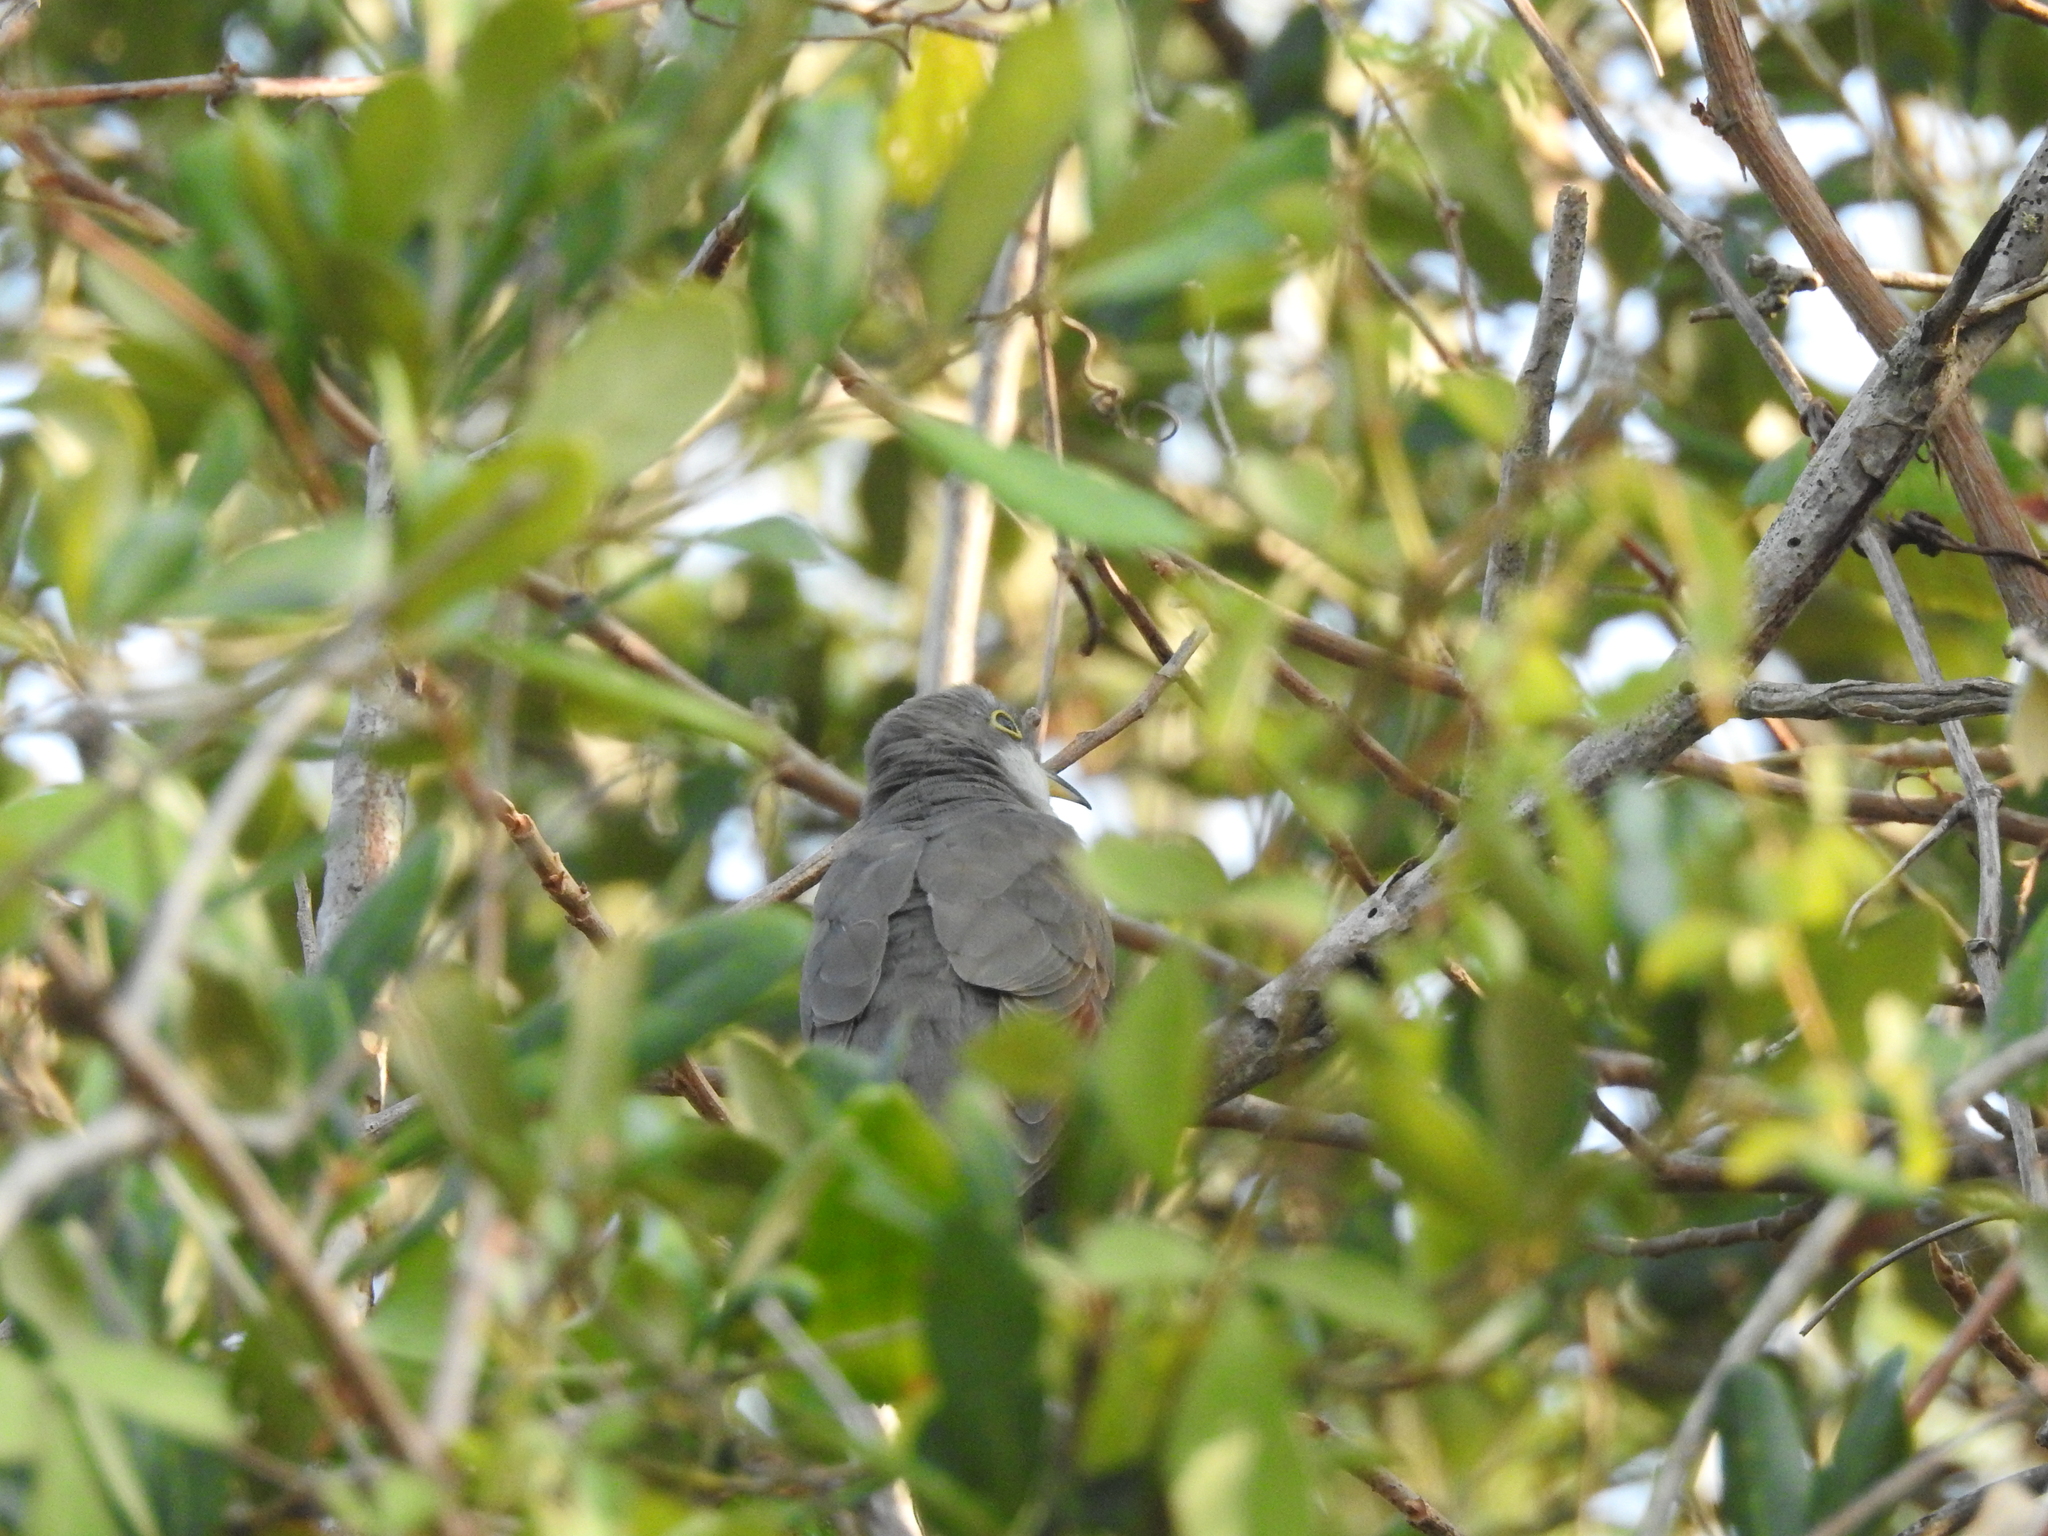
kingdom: Animalia
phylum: Chordata
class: Aves
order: Cuculiformes
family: Cuculidae
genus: Coccyzus
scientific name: Coccyzus americanus
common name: Yellow-billed cuckoo
